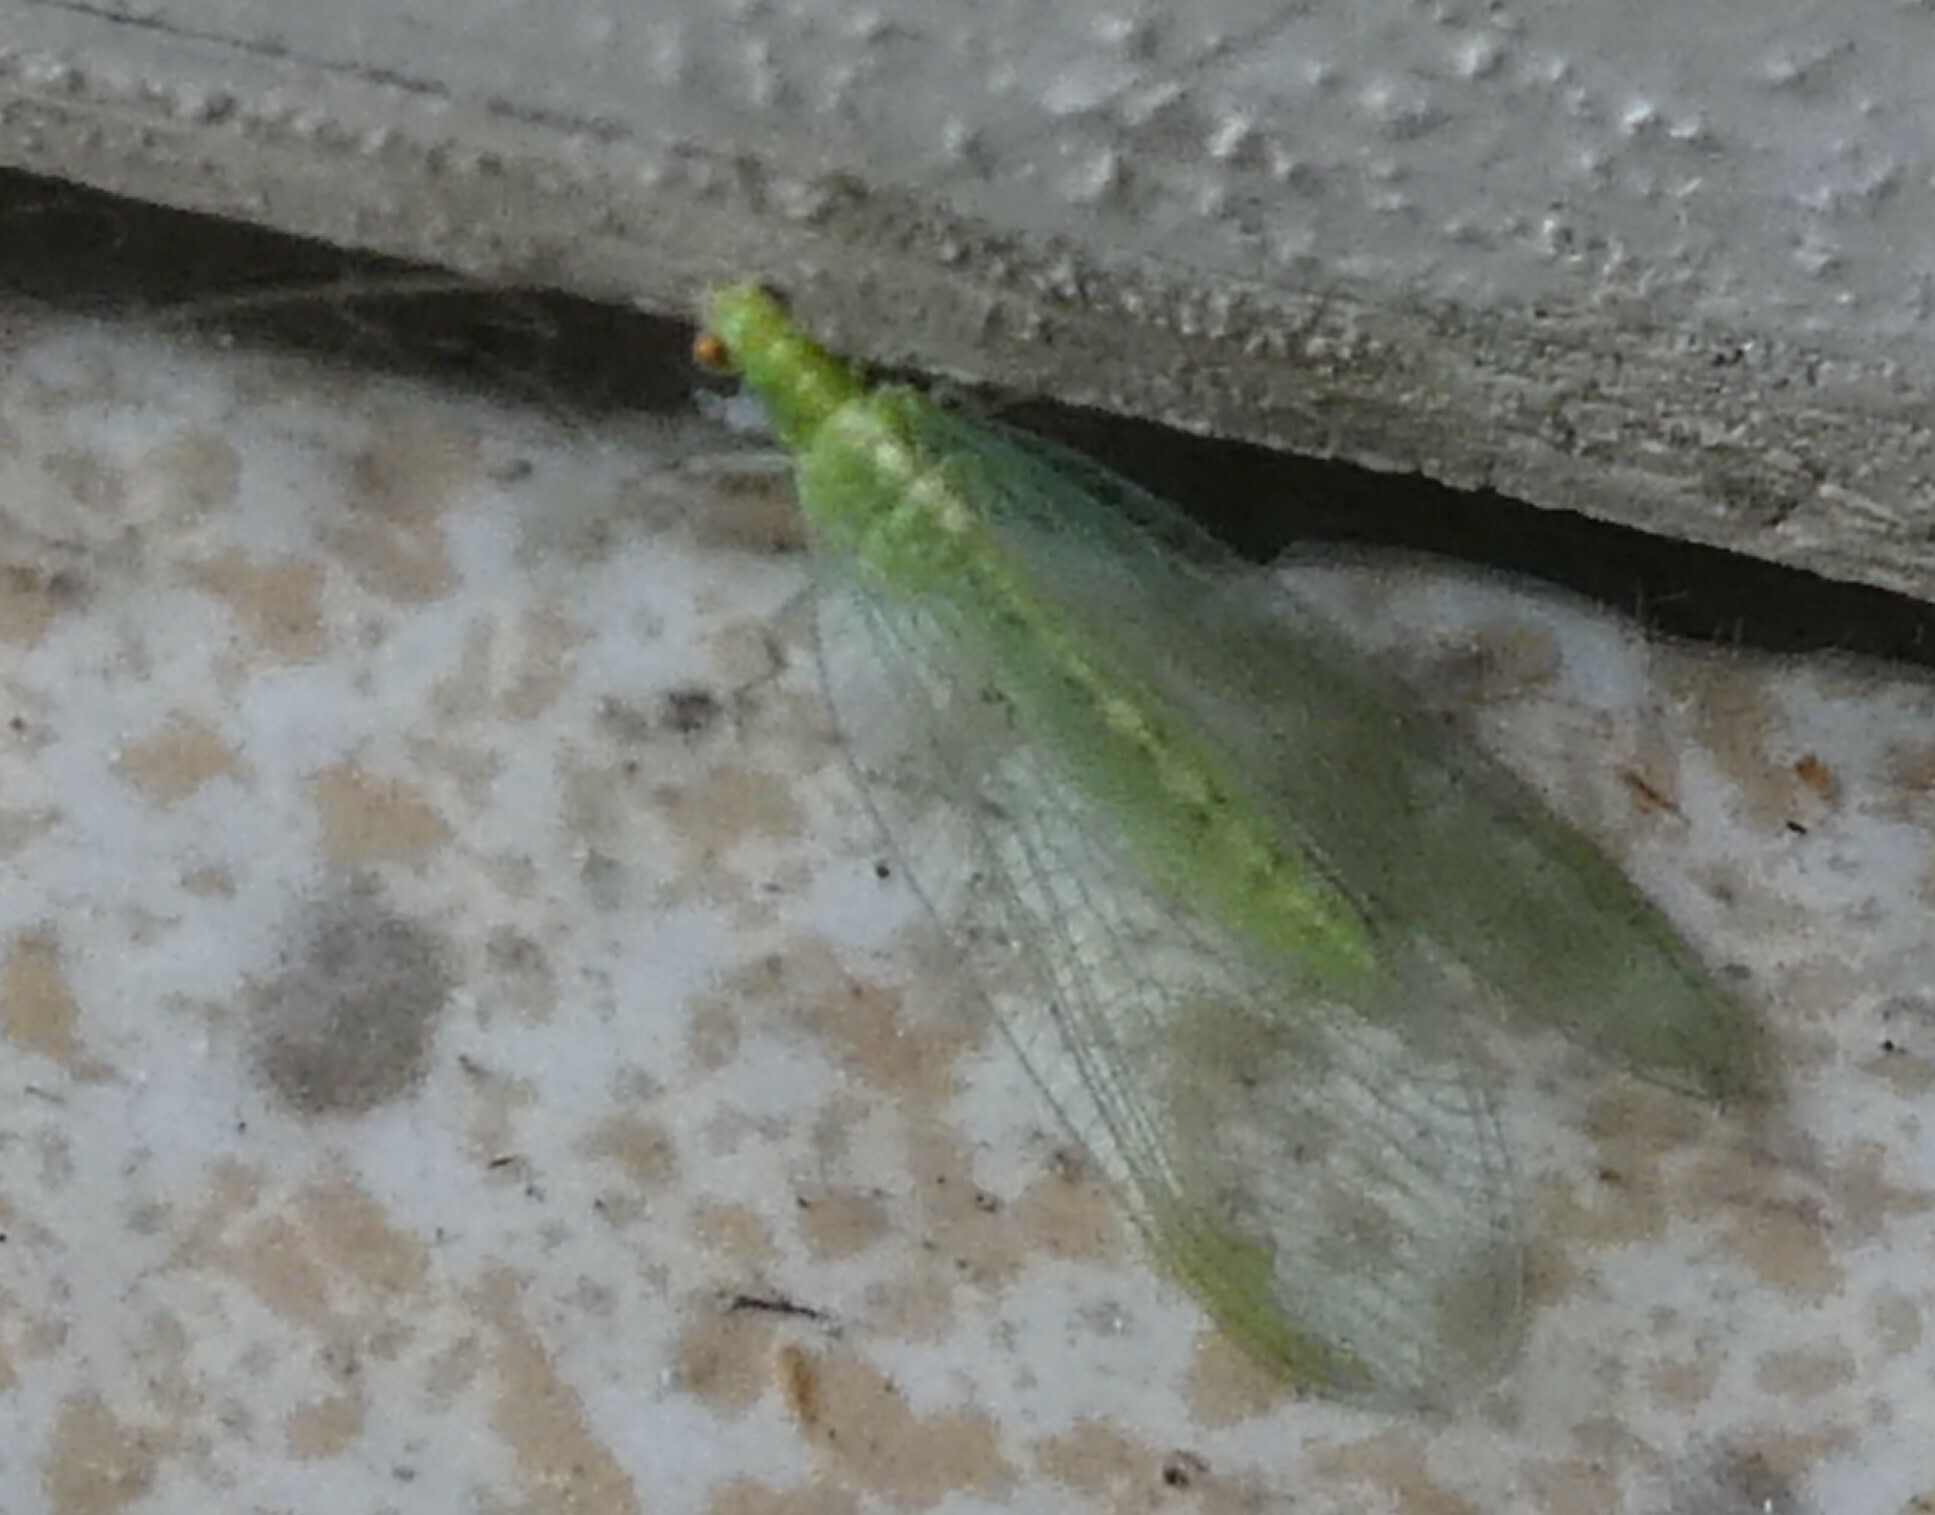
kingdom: Animalia
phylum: Arthropoda
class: Insecta
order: Neuroptera
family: Chrysopidae
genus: Chrysoperla
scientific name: Chrysoperla
